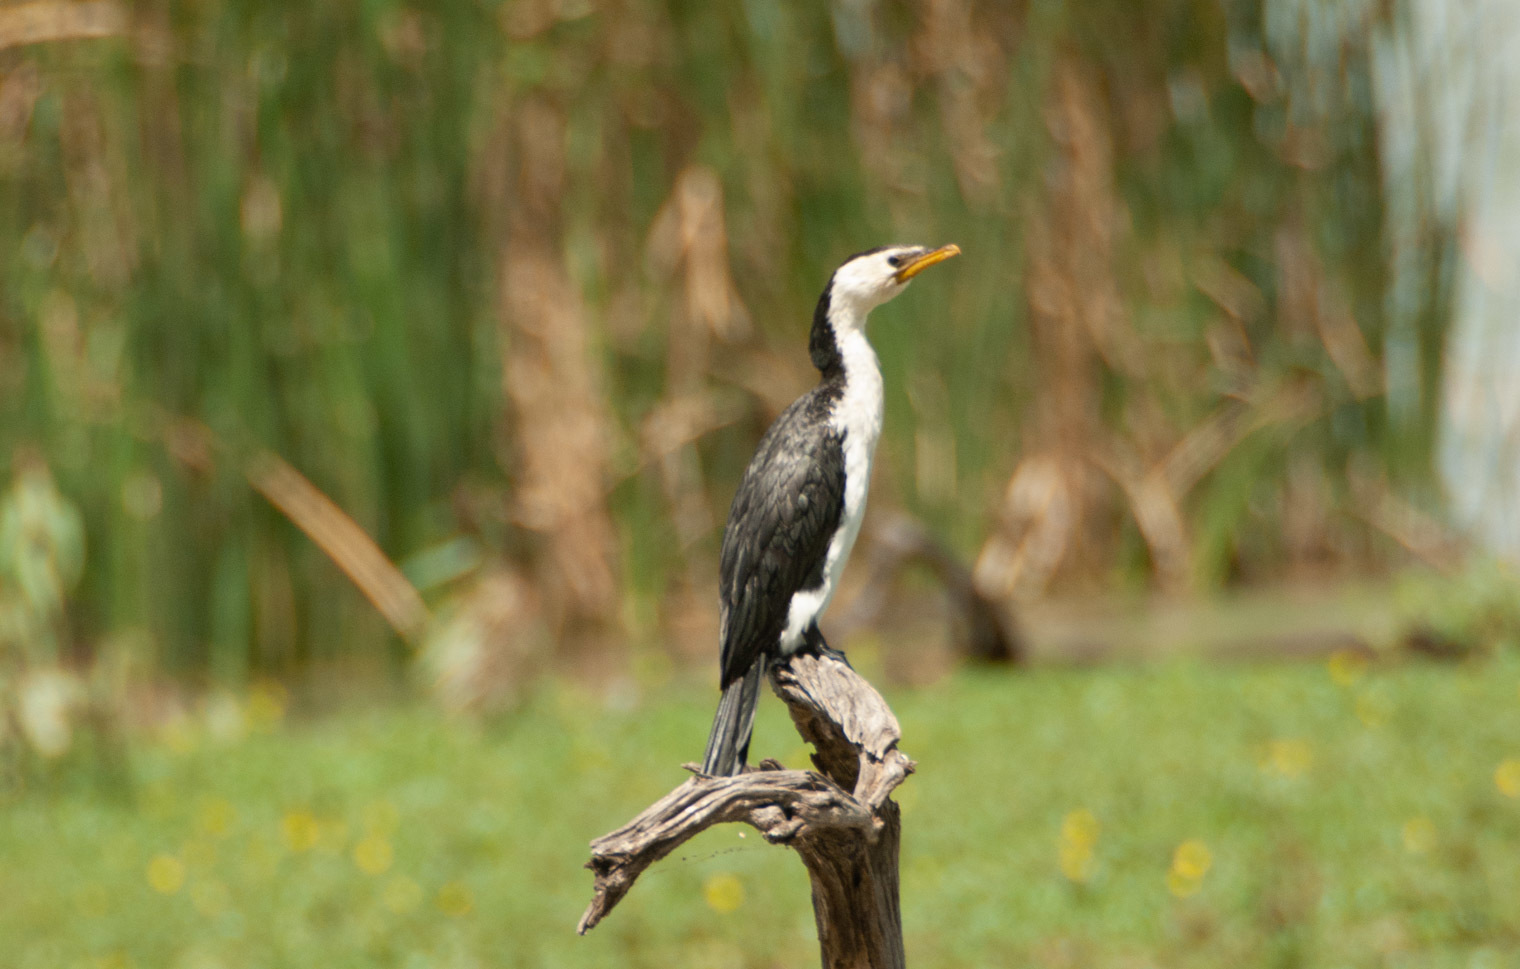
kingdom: Animalia
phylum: Chordata
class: Aves
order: Suliformes
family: Phalacrocoracidae
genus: Microcarbo
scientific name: Microcarbo melanoleucos
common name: Little pied cormorant
